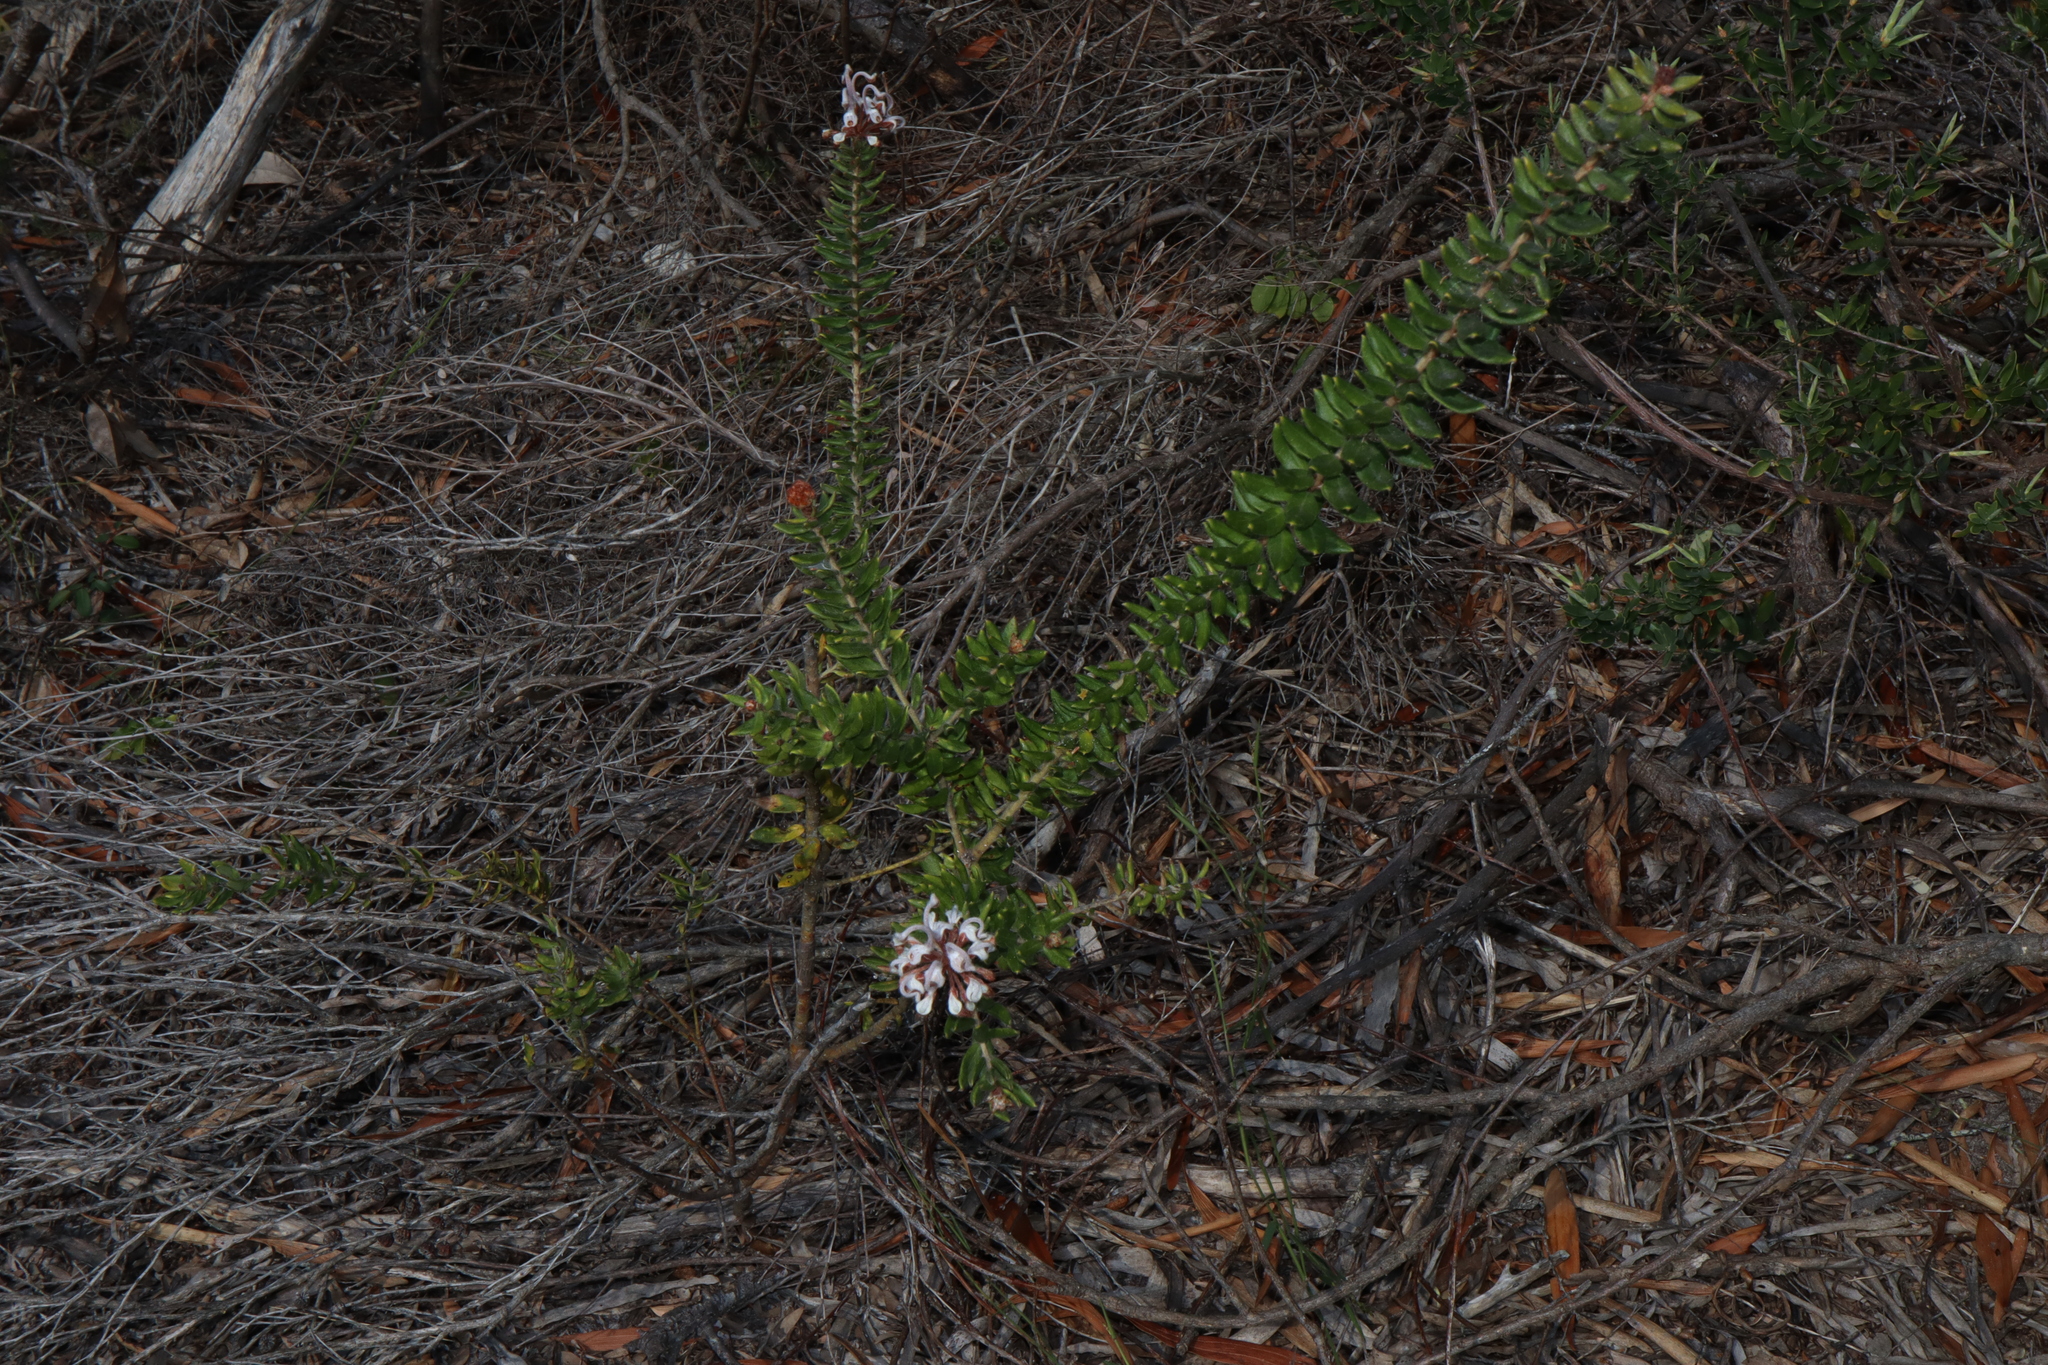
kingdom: Plantae
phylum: Tracheophyta
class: Magnoliopsida
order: Proteales
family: Proteaceae
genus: Grevillea
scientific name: Grevillea buxifolia
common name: Grey spiderflower
